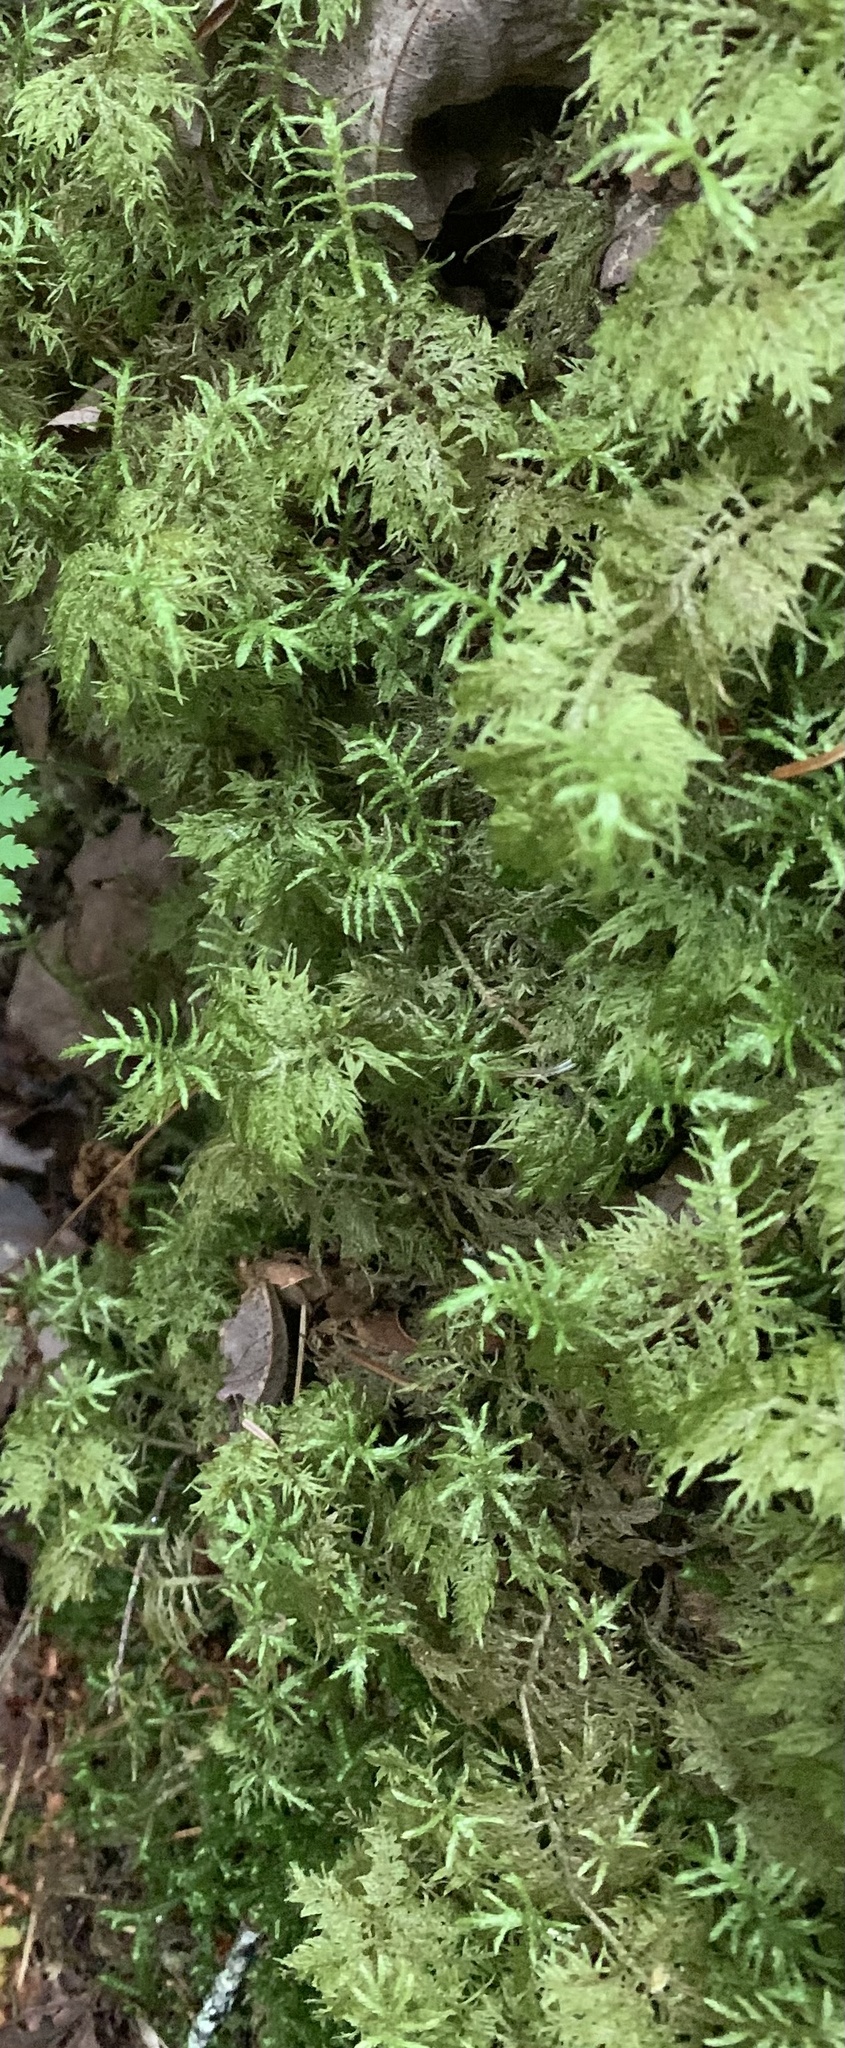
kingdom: Plantae
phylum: Bryophyta
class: Bryopsida
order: Hypnales
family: Hylocomiaceae
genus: Hylocomium
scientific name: Hylocomium splendens
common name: Stairstep moss
